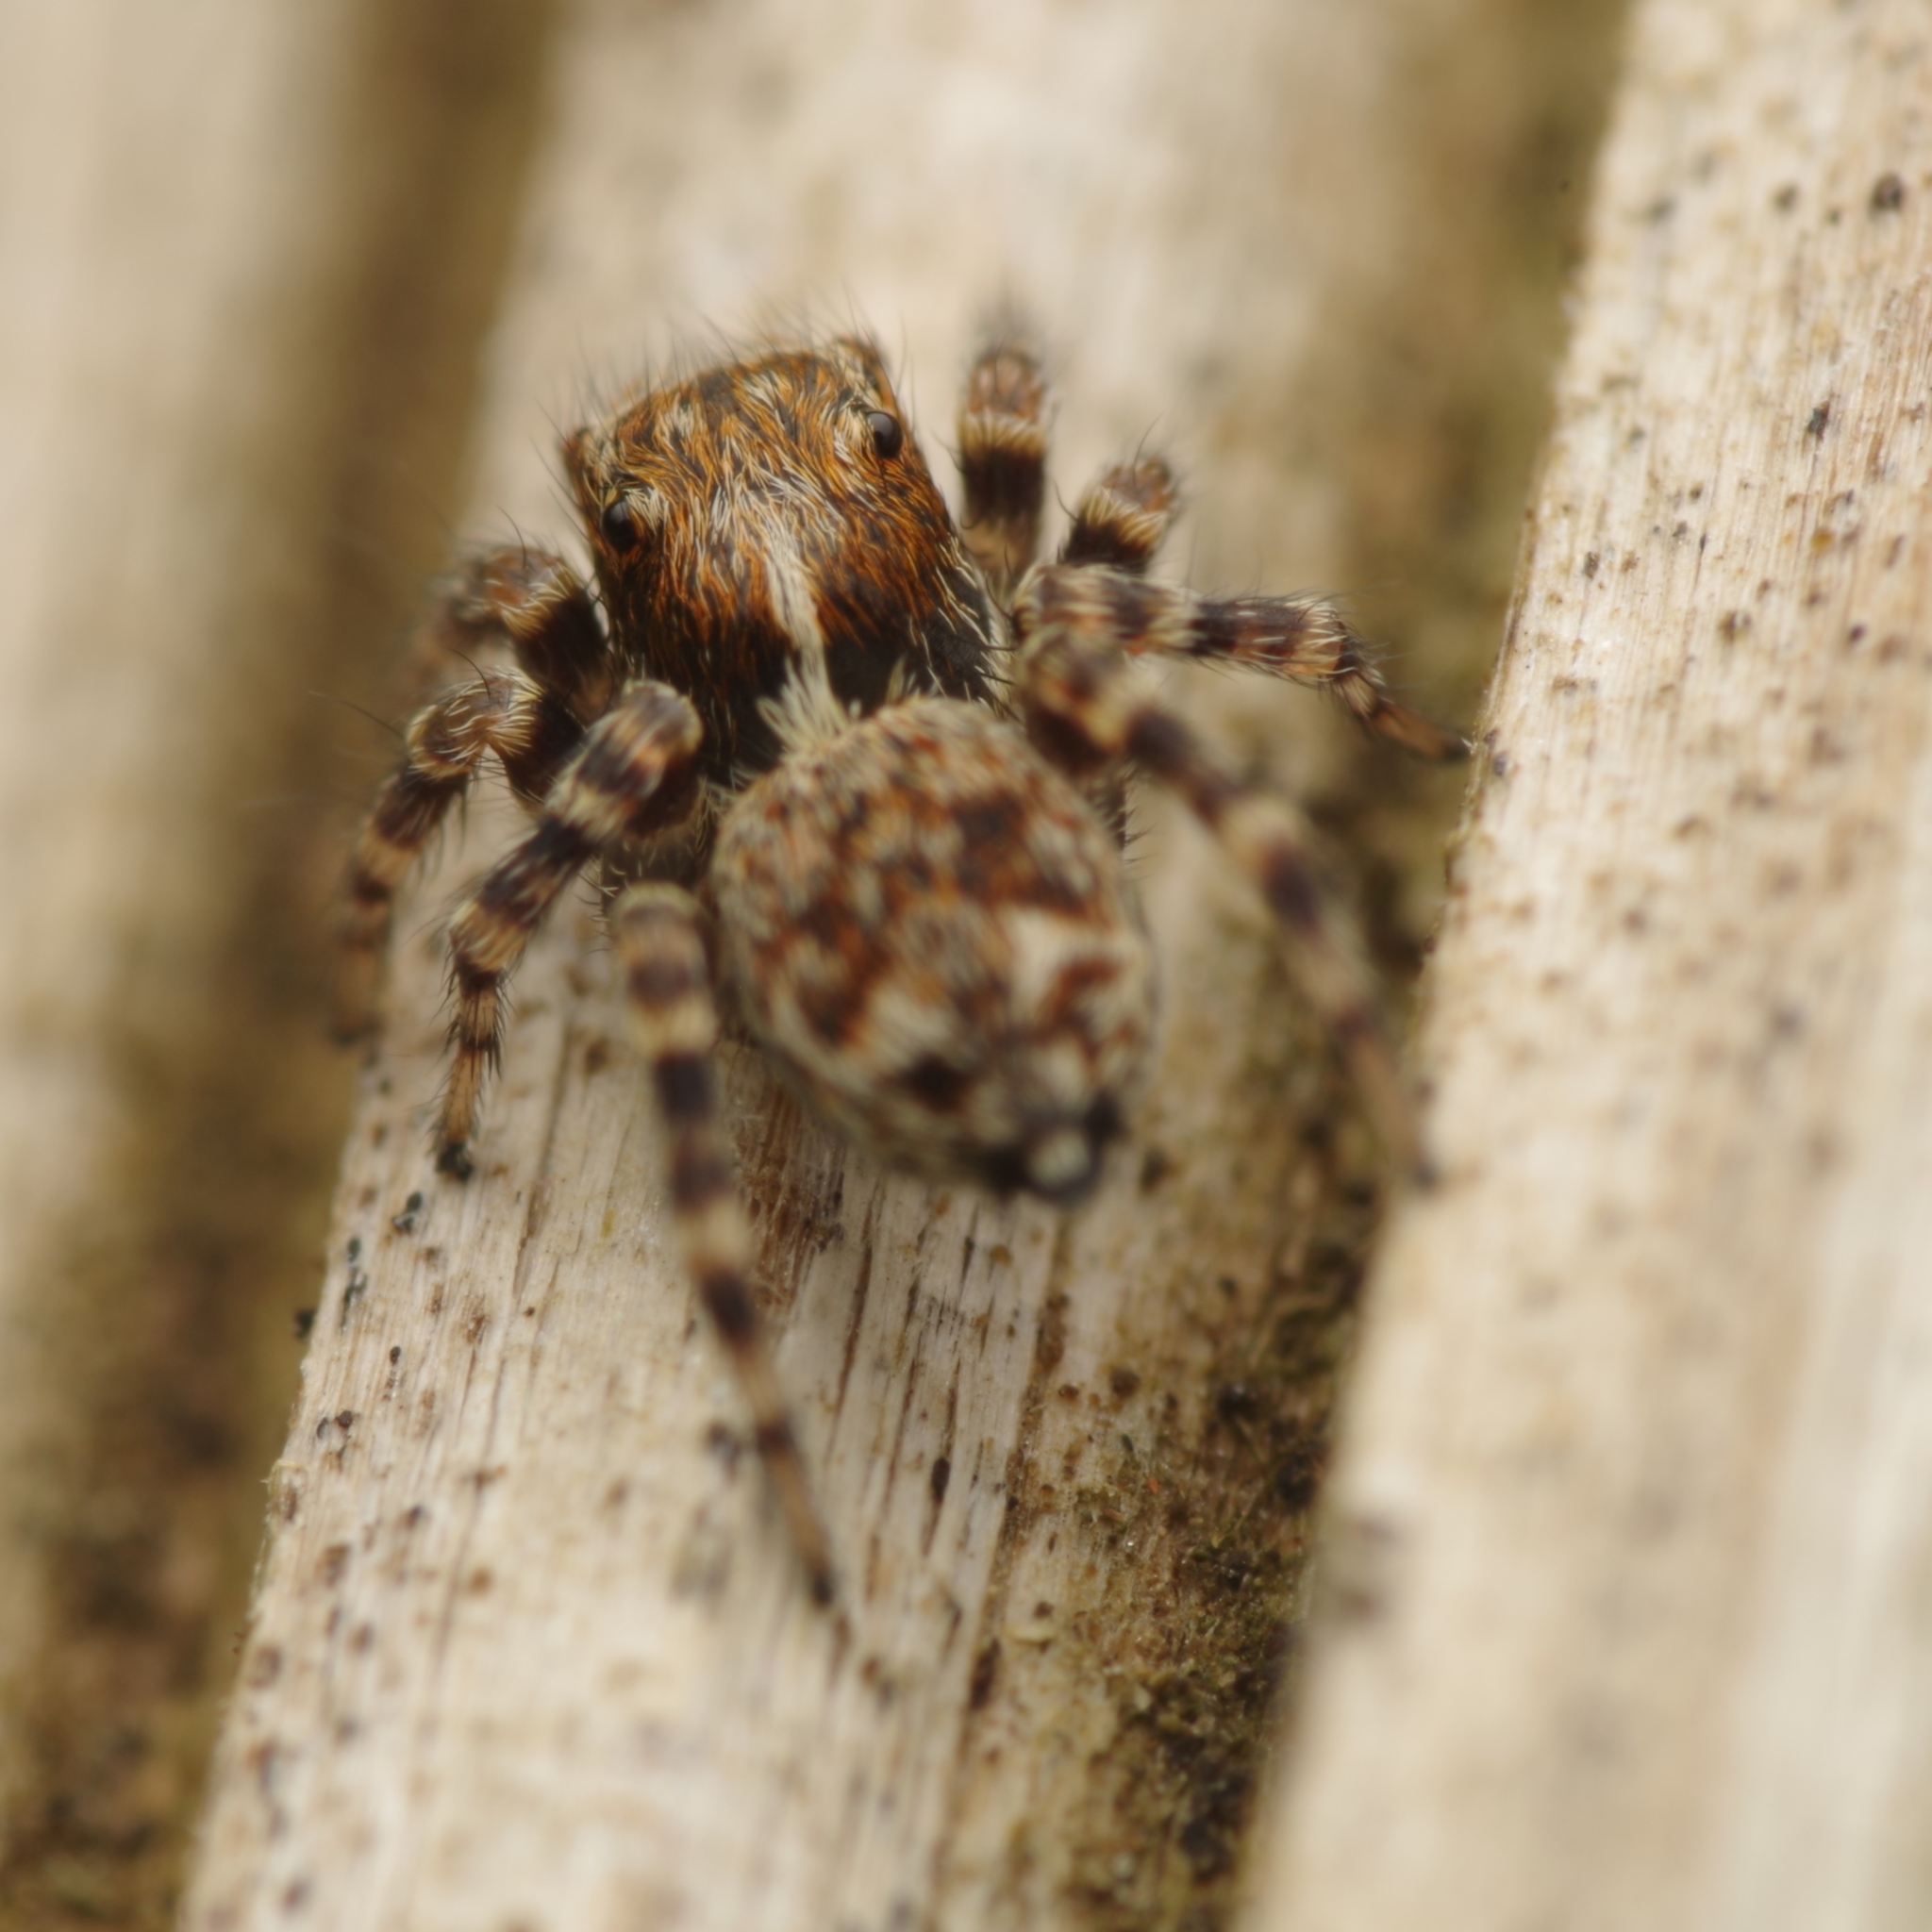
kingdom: Animalia
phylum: Arthropoda
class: Arachnida
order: Araneae
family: Salticidae
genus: Pseudeuophrys
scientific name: Pseudeuophrys erratica
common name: Jumping spider
